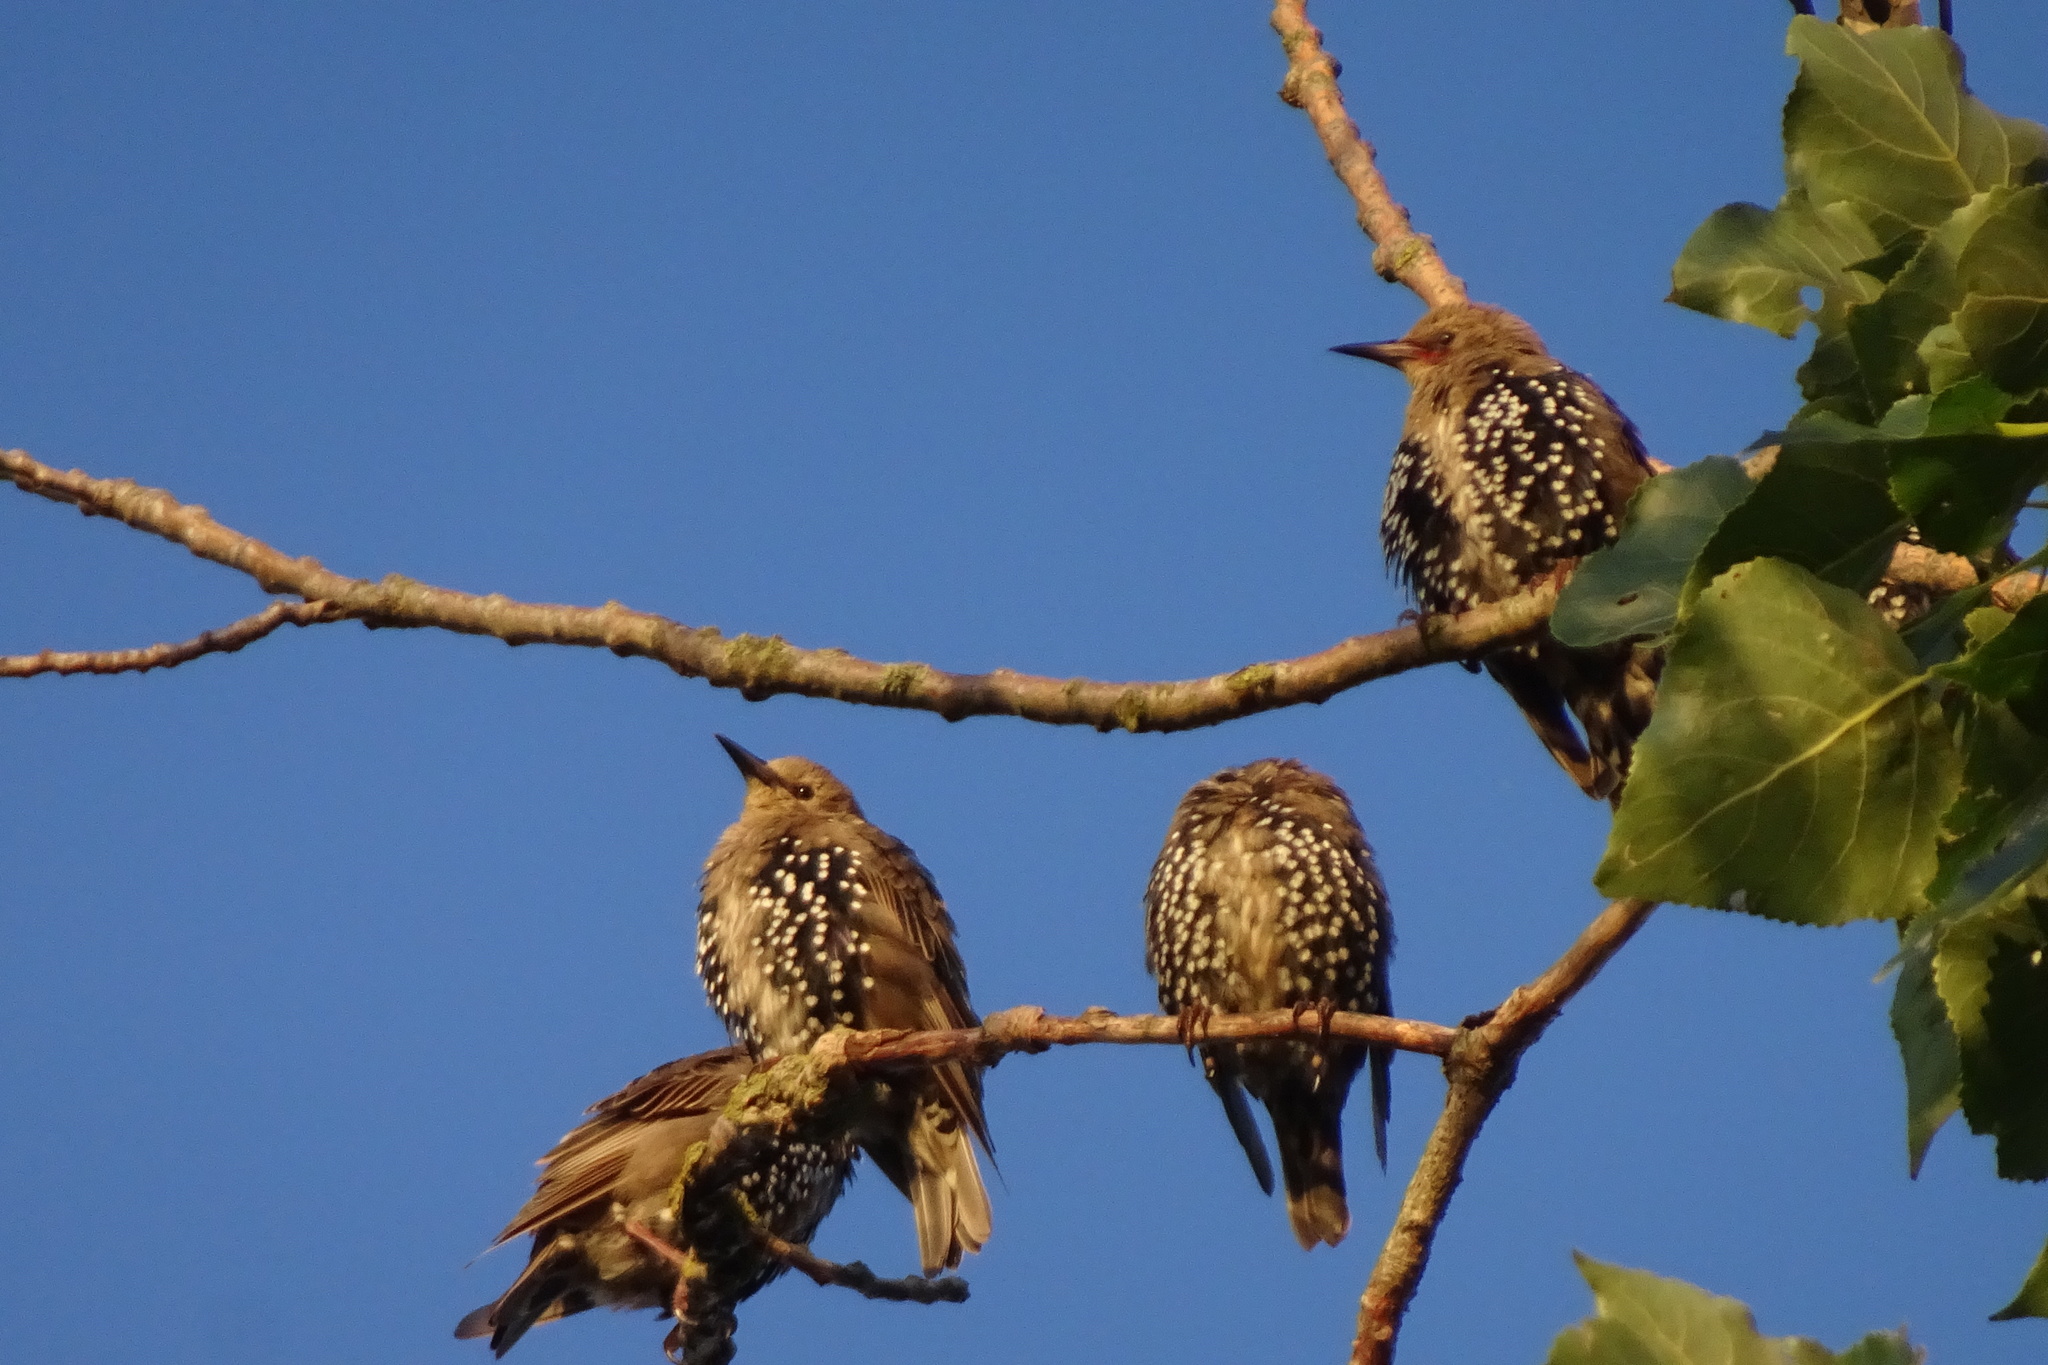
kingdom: Animalia
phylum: Chordata
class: Aves
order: Passeriformes
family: Sturnidae
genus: Sturnus
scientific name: Sturnus vulgaris
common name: Common starling
